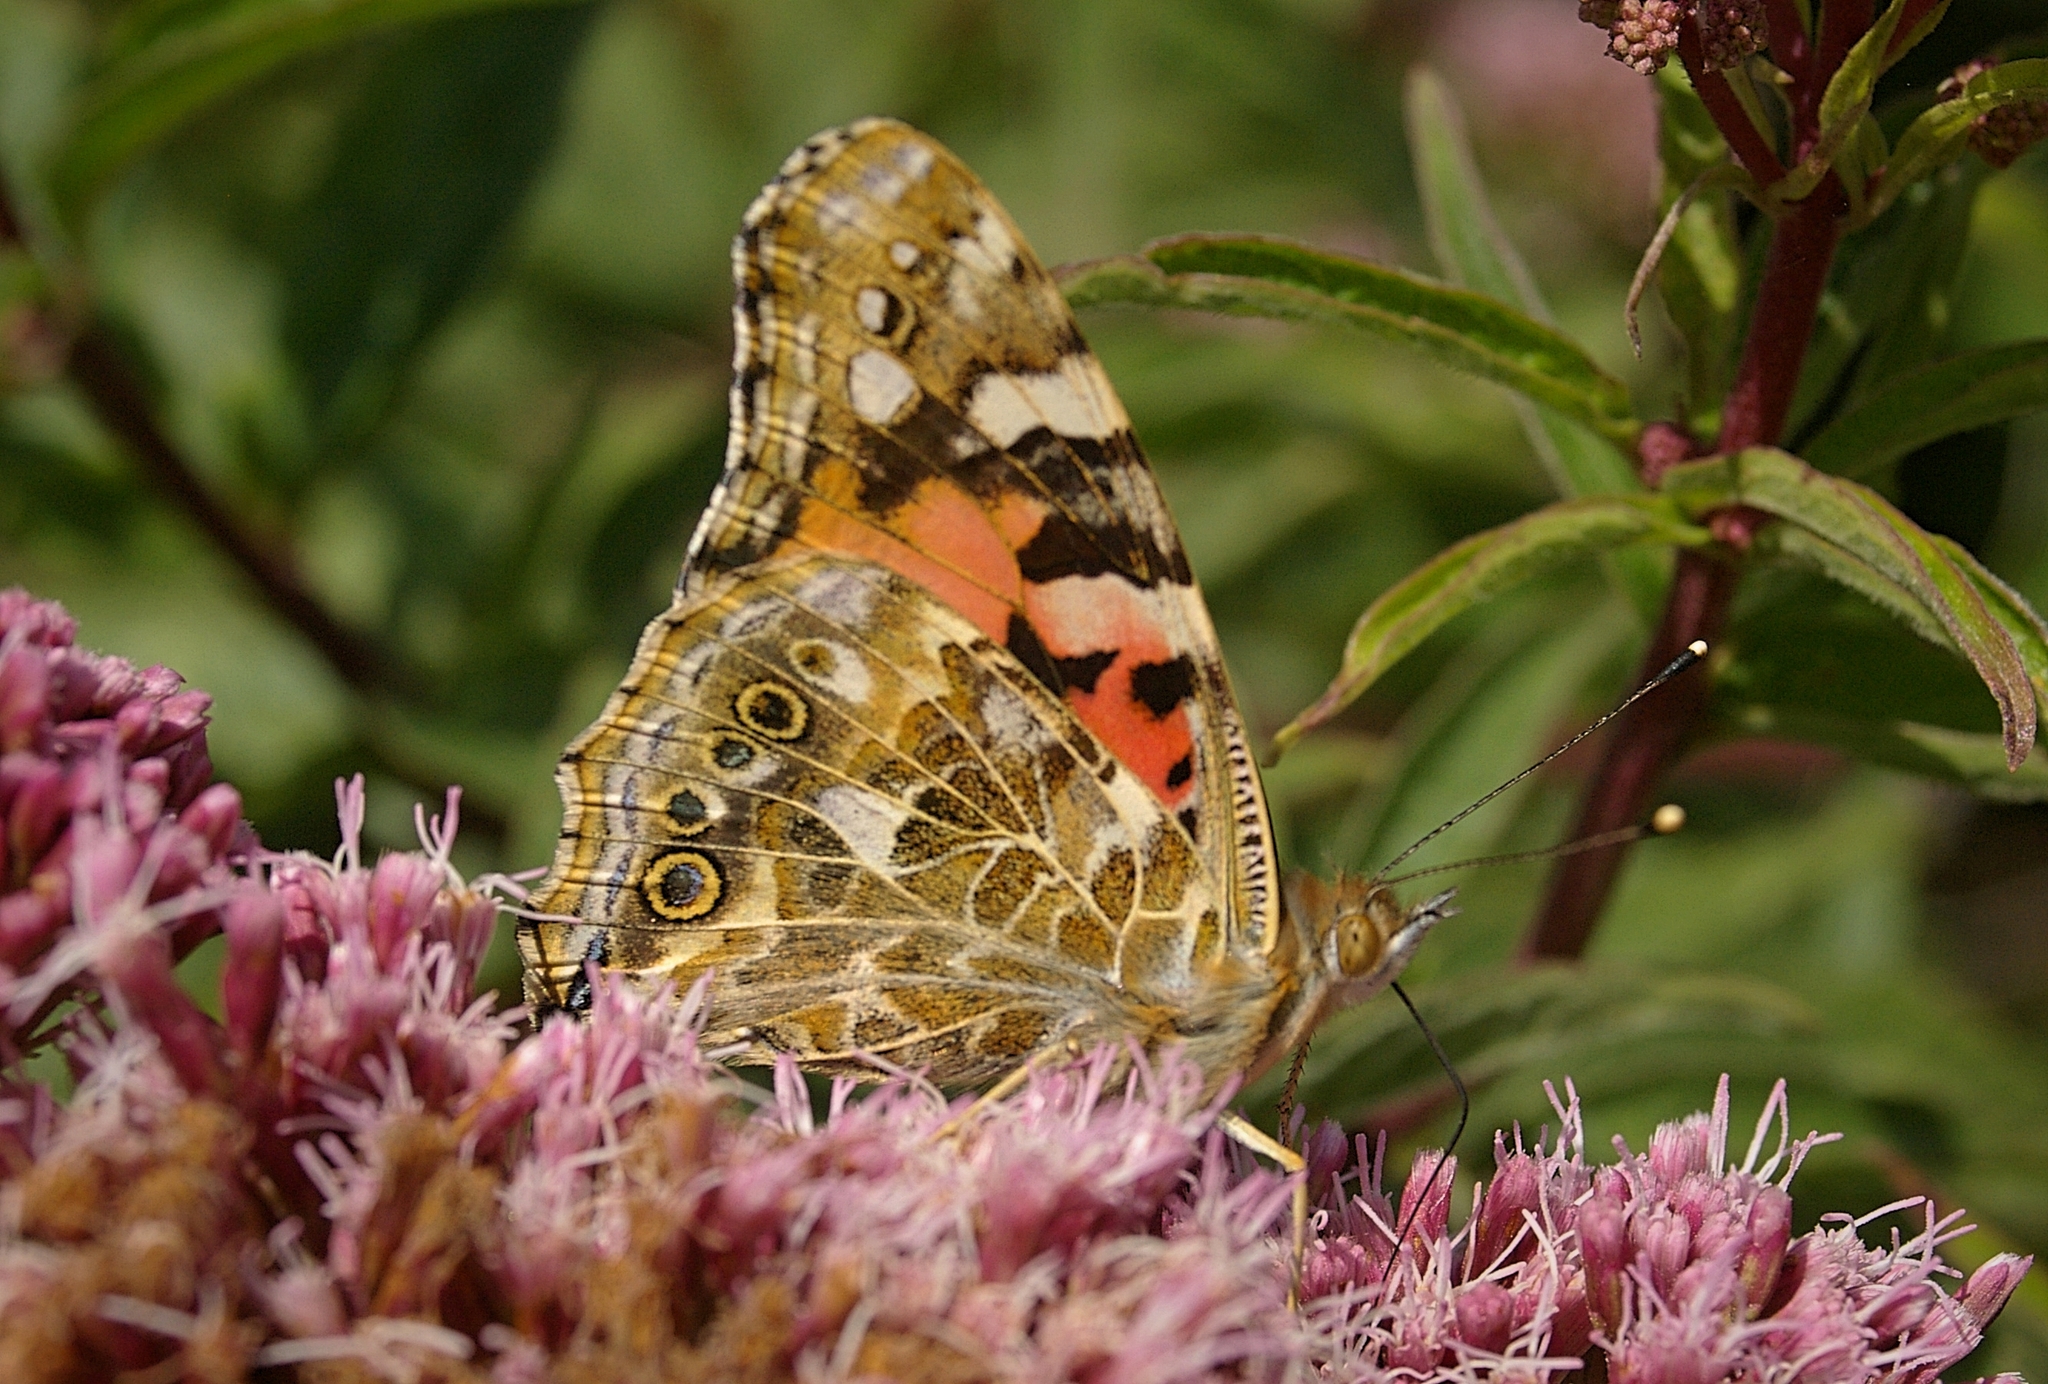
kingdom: Animalia
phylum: Arthropoda
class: Insecta
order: Lepidoptera
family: Nymphalidae
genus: Vanessa
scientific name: Vanessa cardui
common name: Painted lady
